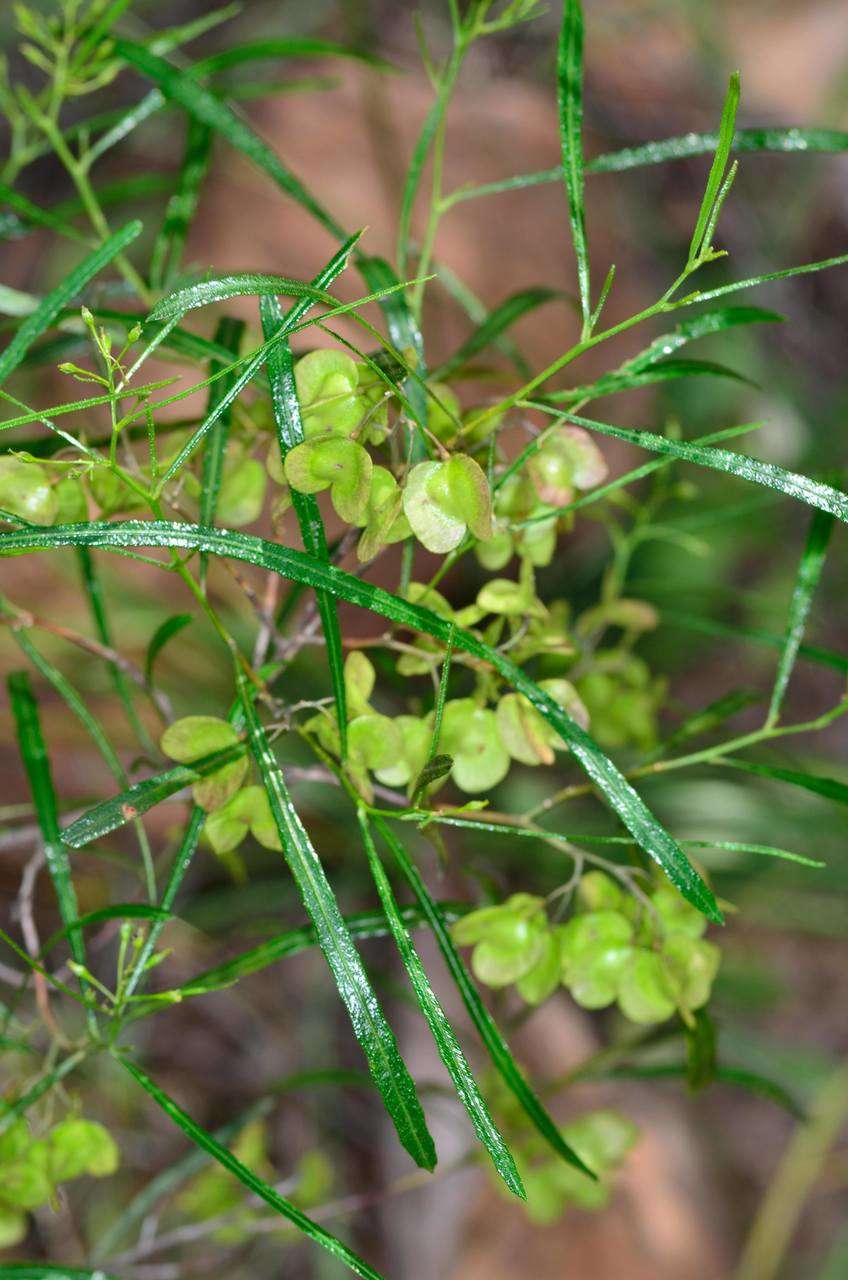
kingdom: Plantae
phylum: Tracheophyta
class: Magnoliopsida
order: Sapindales
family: Sapindaceae
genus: Dodonaea
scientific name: Dodonaea viscosa
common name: Hopbush
